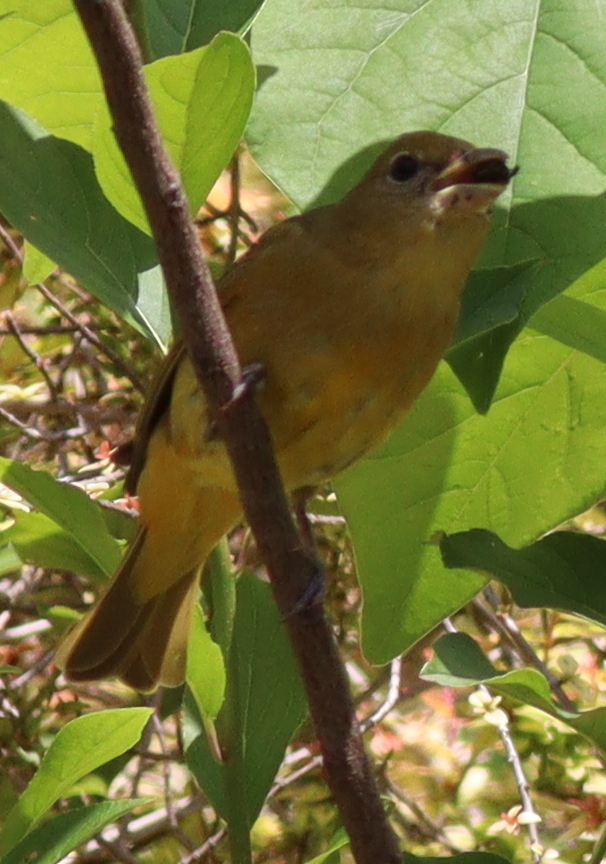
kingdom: Animalia
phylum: Chordata
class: Aves
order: Passeriformes
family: Cardinalidae
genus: Piranga
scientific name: Piranga rubra
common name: Summer tanager
